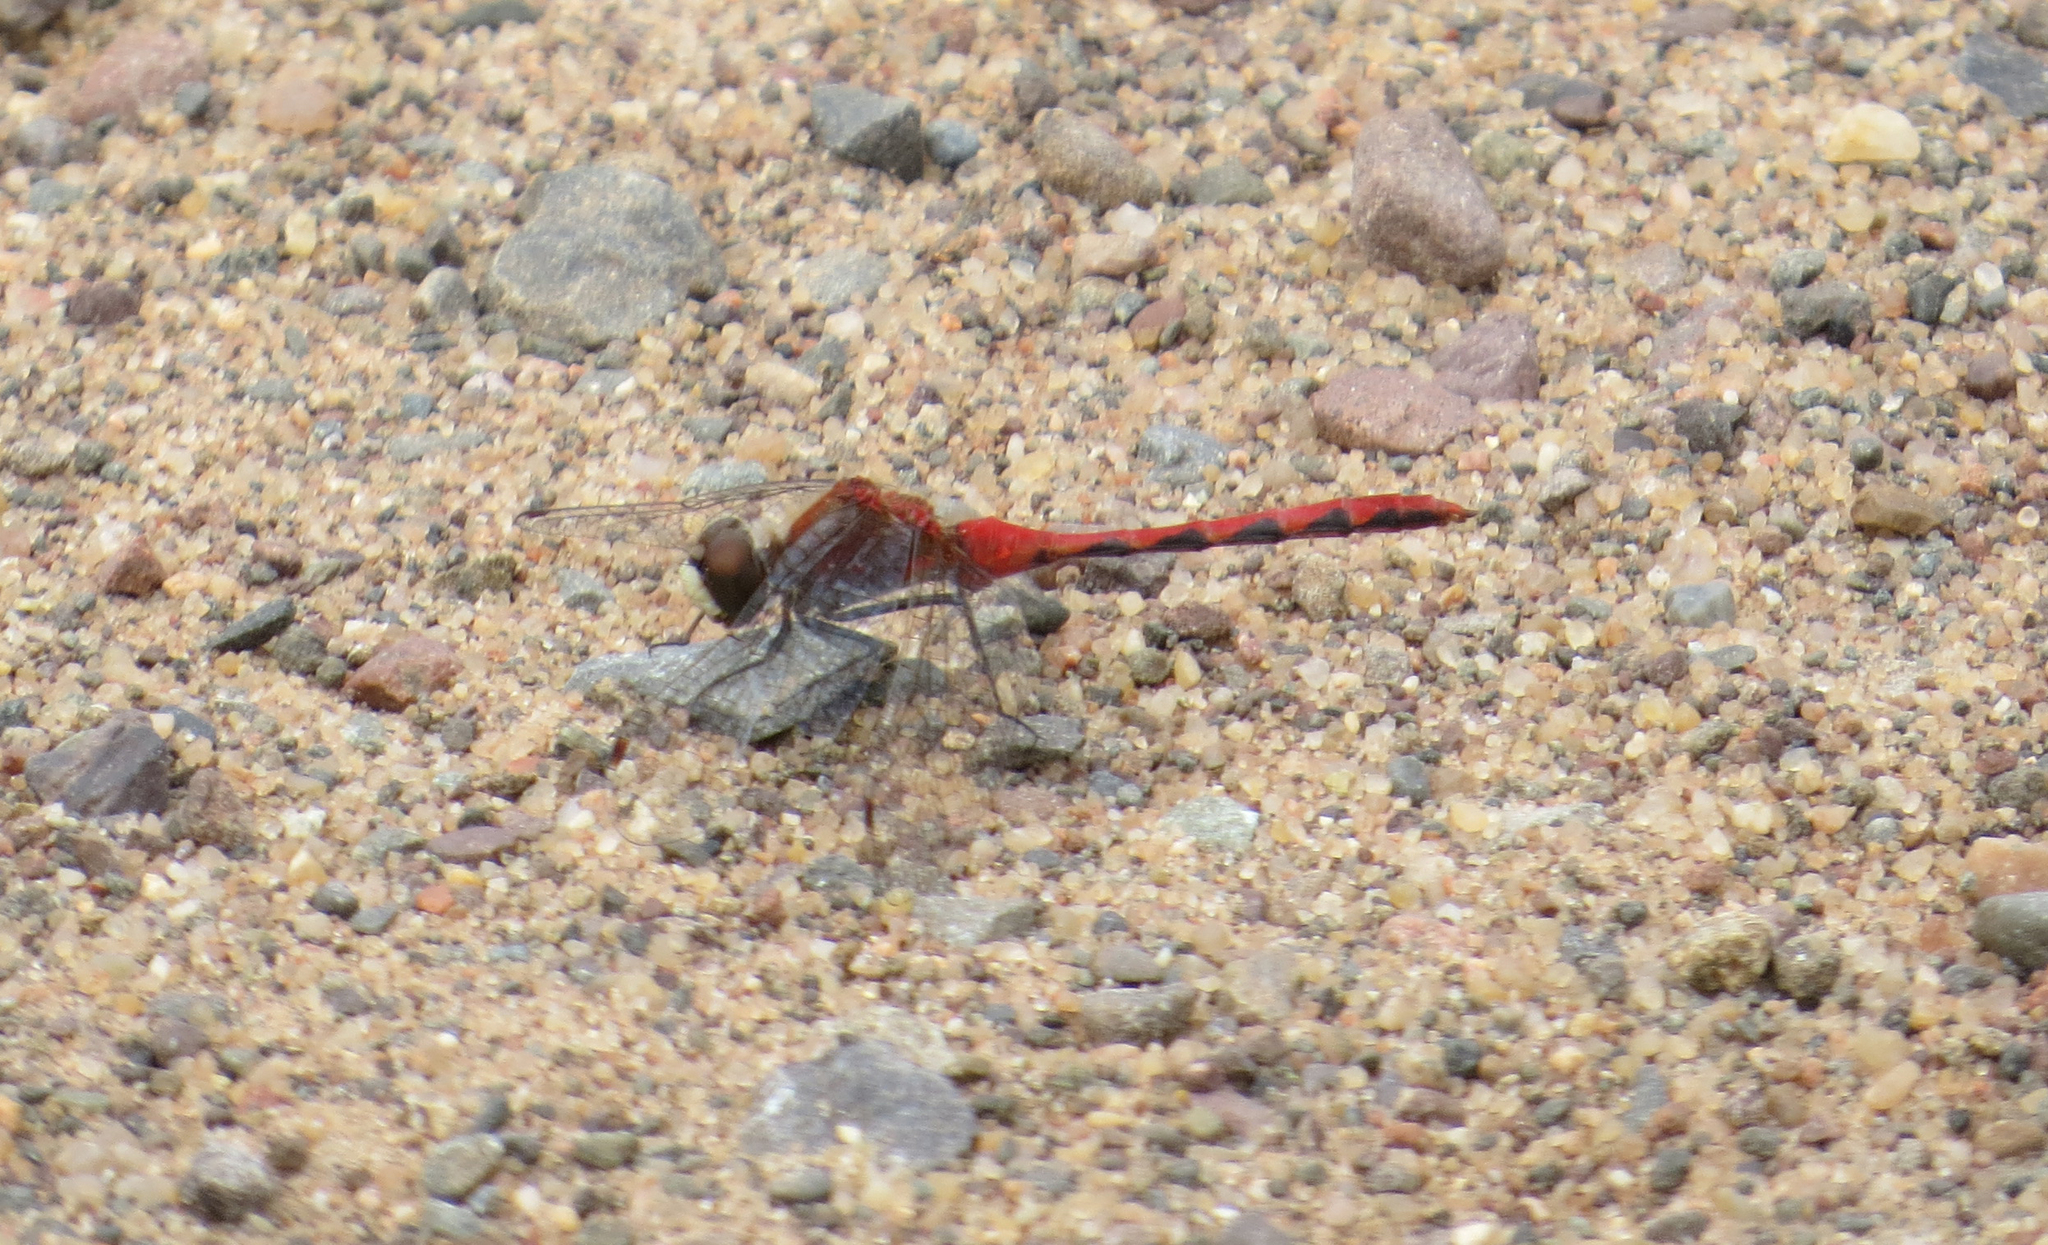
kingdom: Animalia
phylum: Arthropoda
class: Insecta
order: Odonata
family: Libellulidae
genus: Sympetrum
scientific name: Sympetrum obtrusum
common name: White-faced meadowhawk
